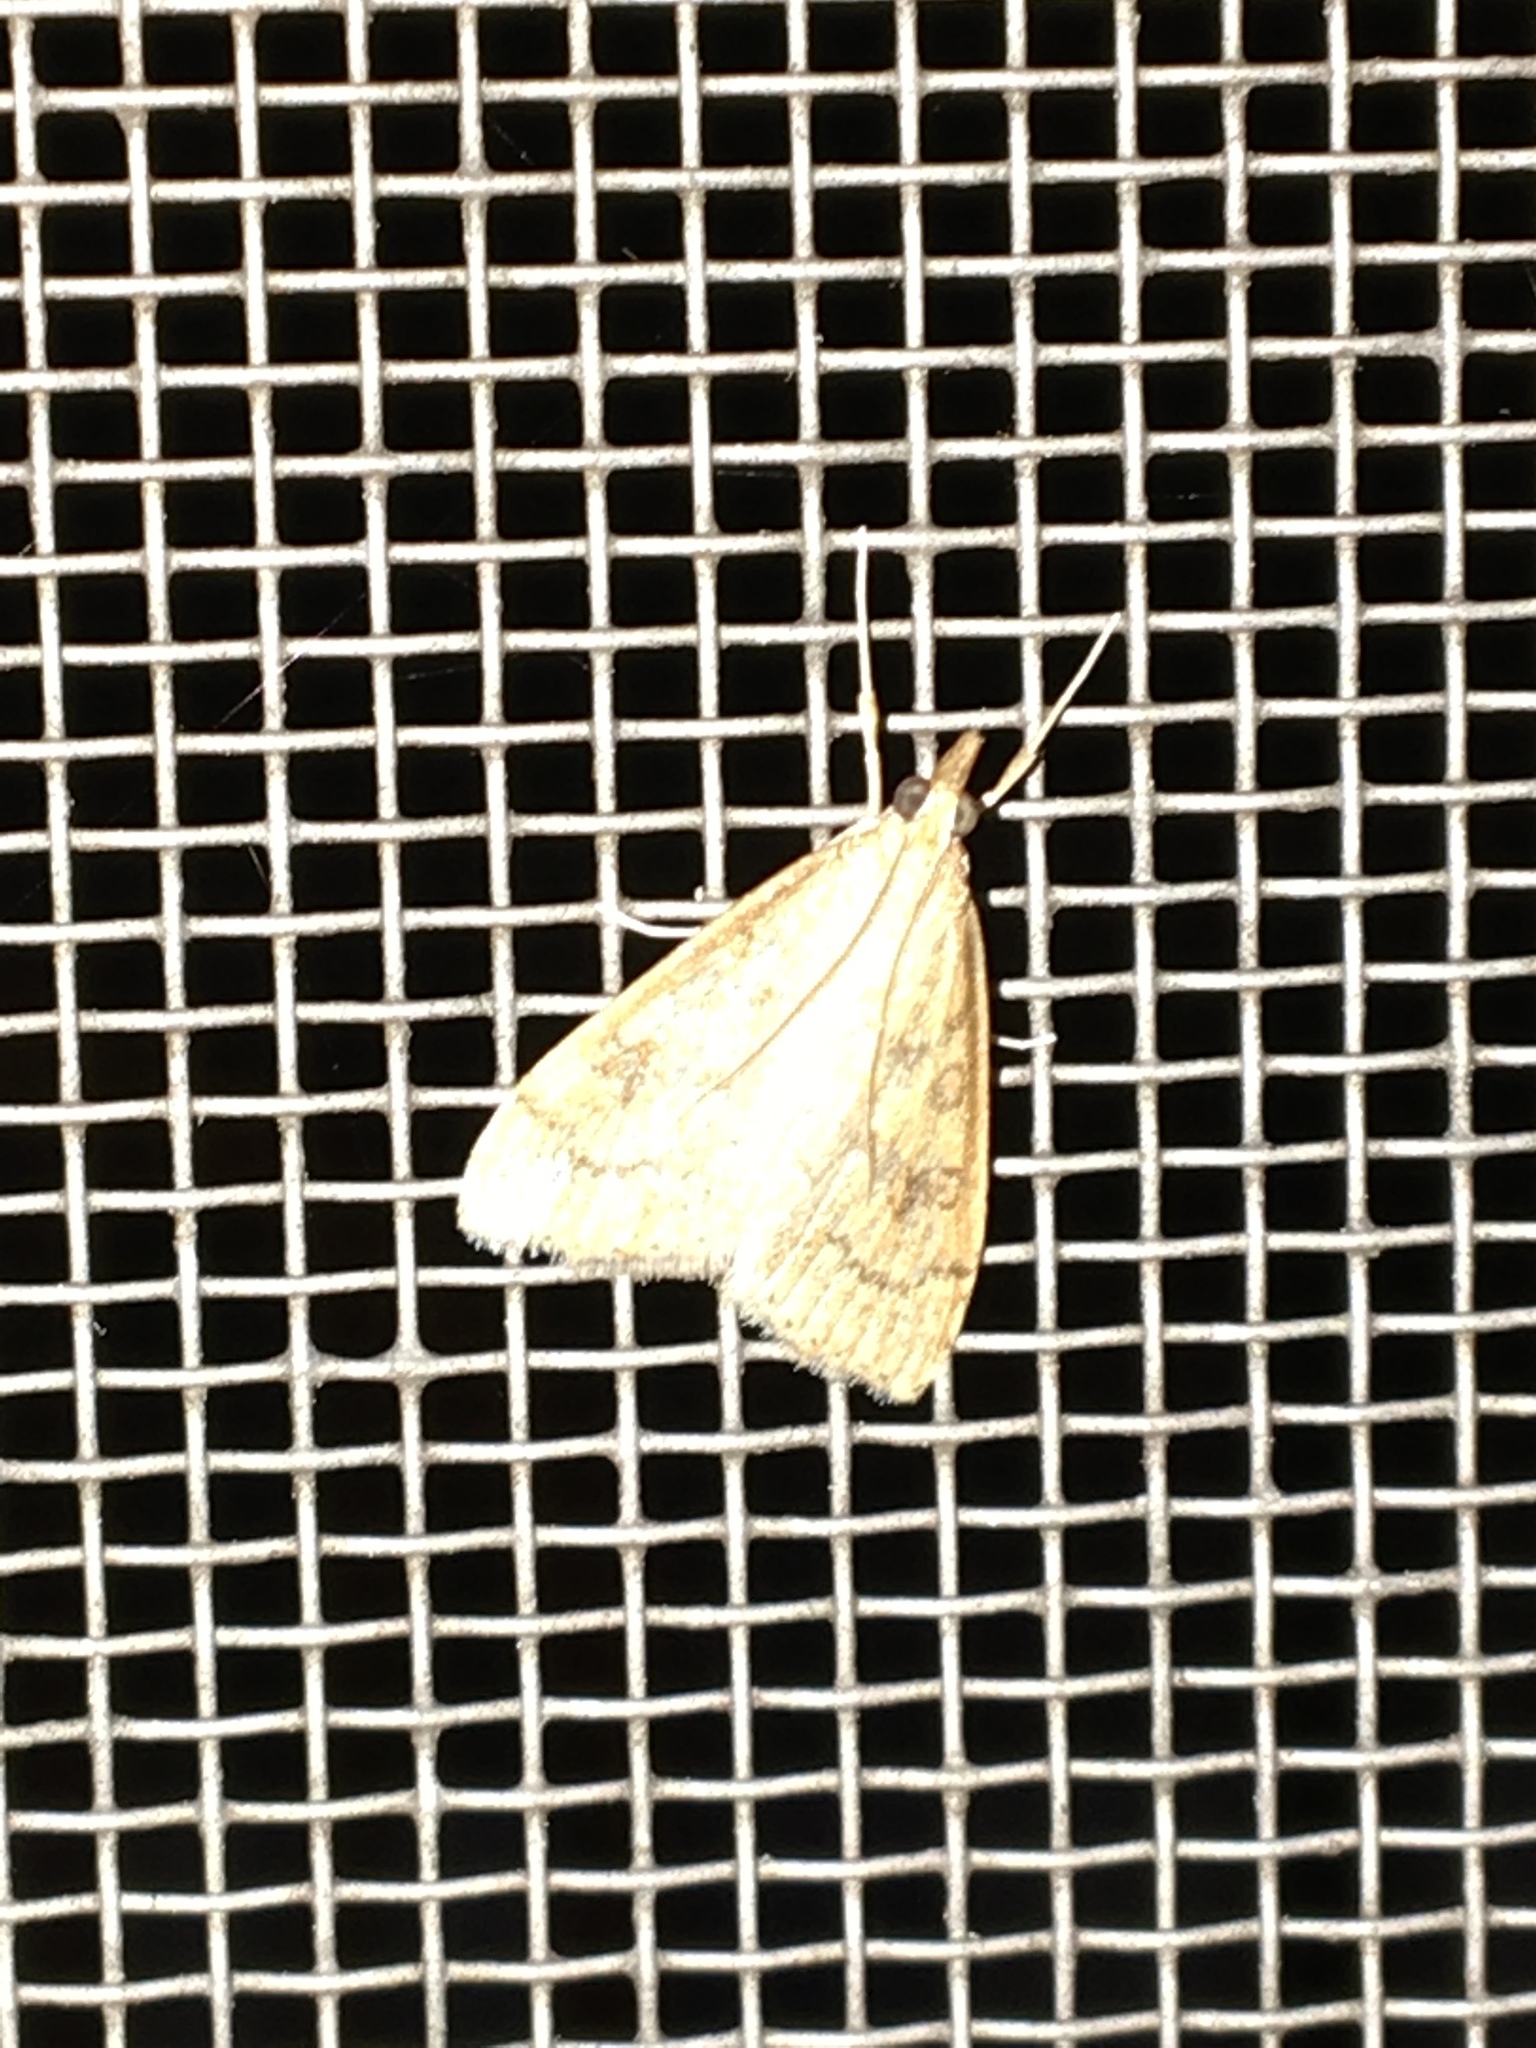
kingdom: Animalia
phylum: Arthropoda
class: Insecta
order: Lepidoptera
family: Crambidae
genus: Udea
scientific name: Udea rubigalis
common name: Celery leaftier moth
